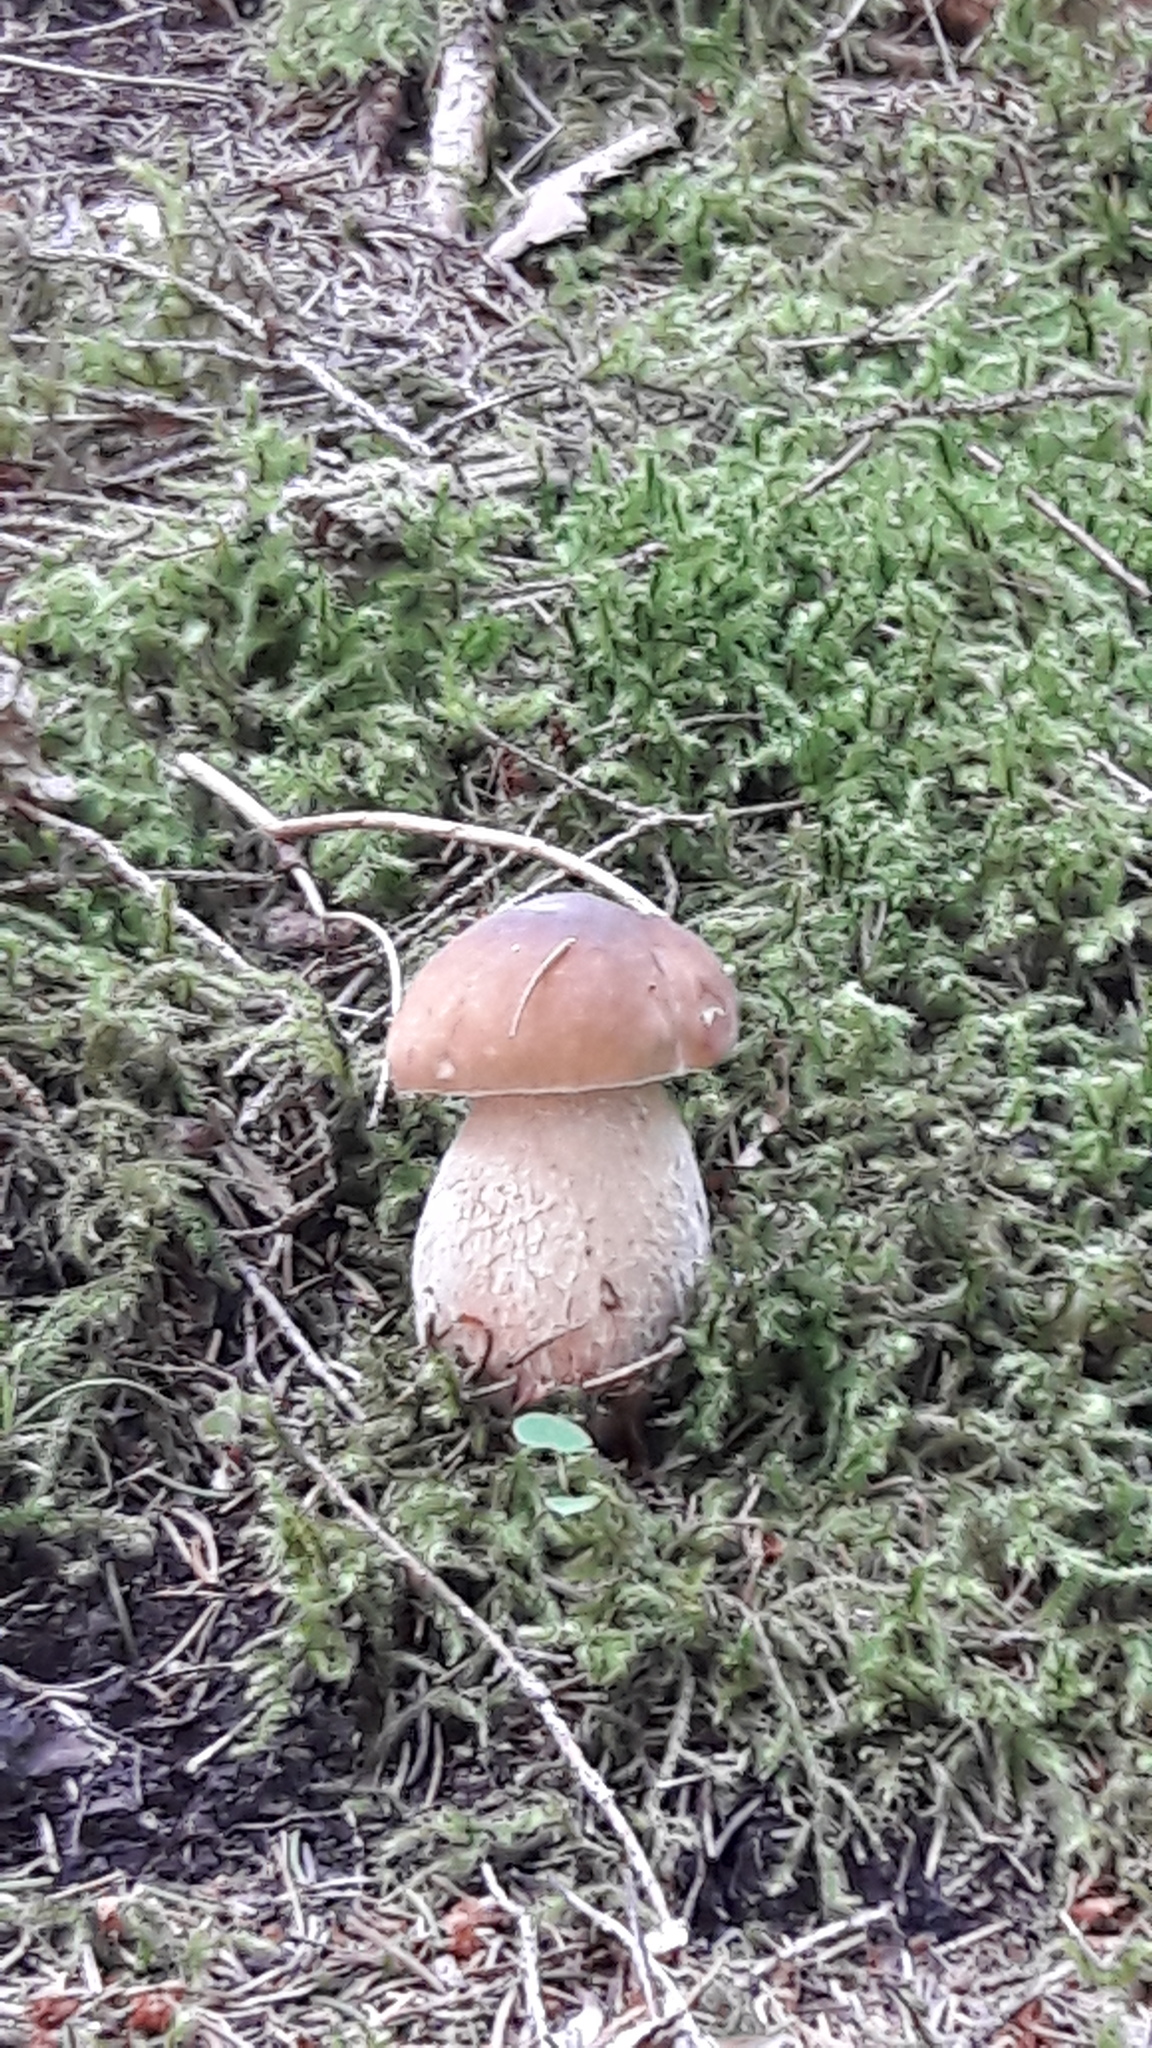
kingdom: Fungi
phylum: Basidiomycota
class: Agaricomycetes
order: Boletales
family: Boletaceae
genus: Boletus
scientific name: Boletus edulis
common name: Cep
